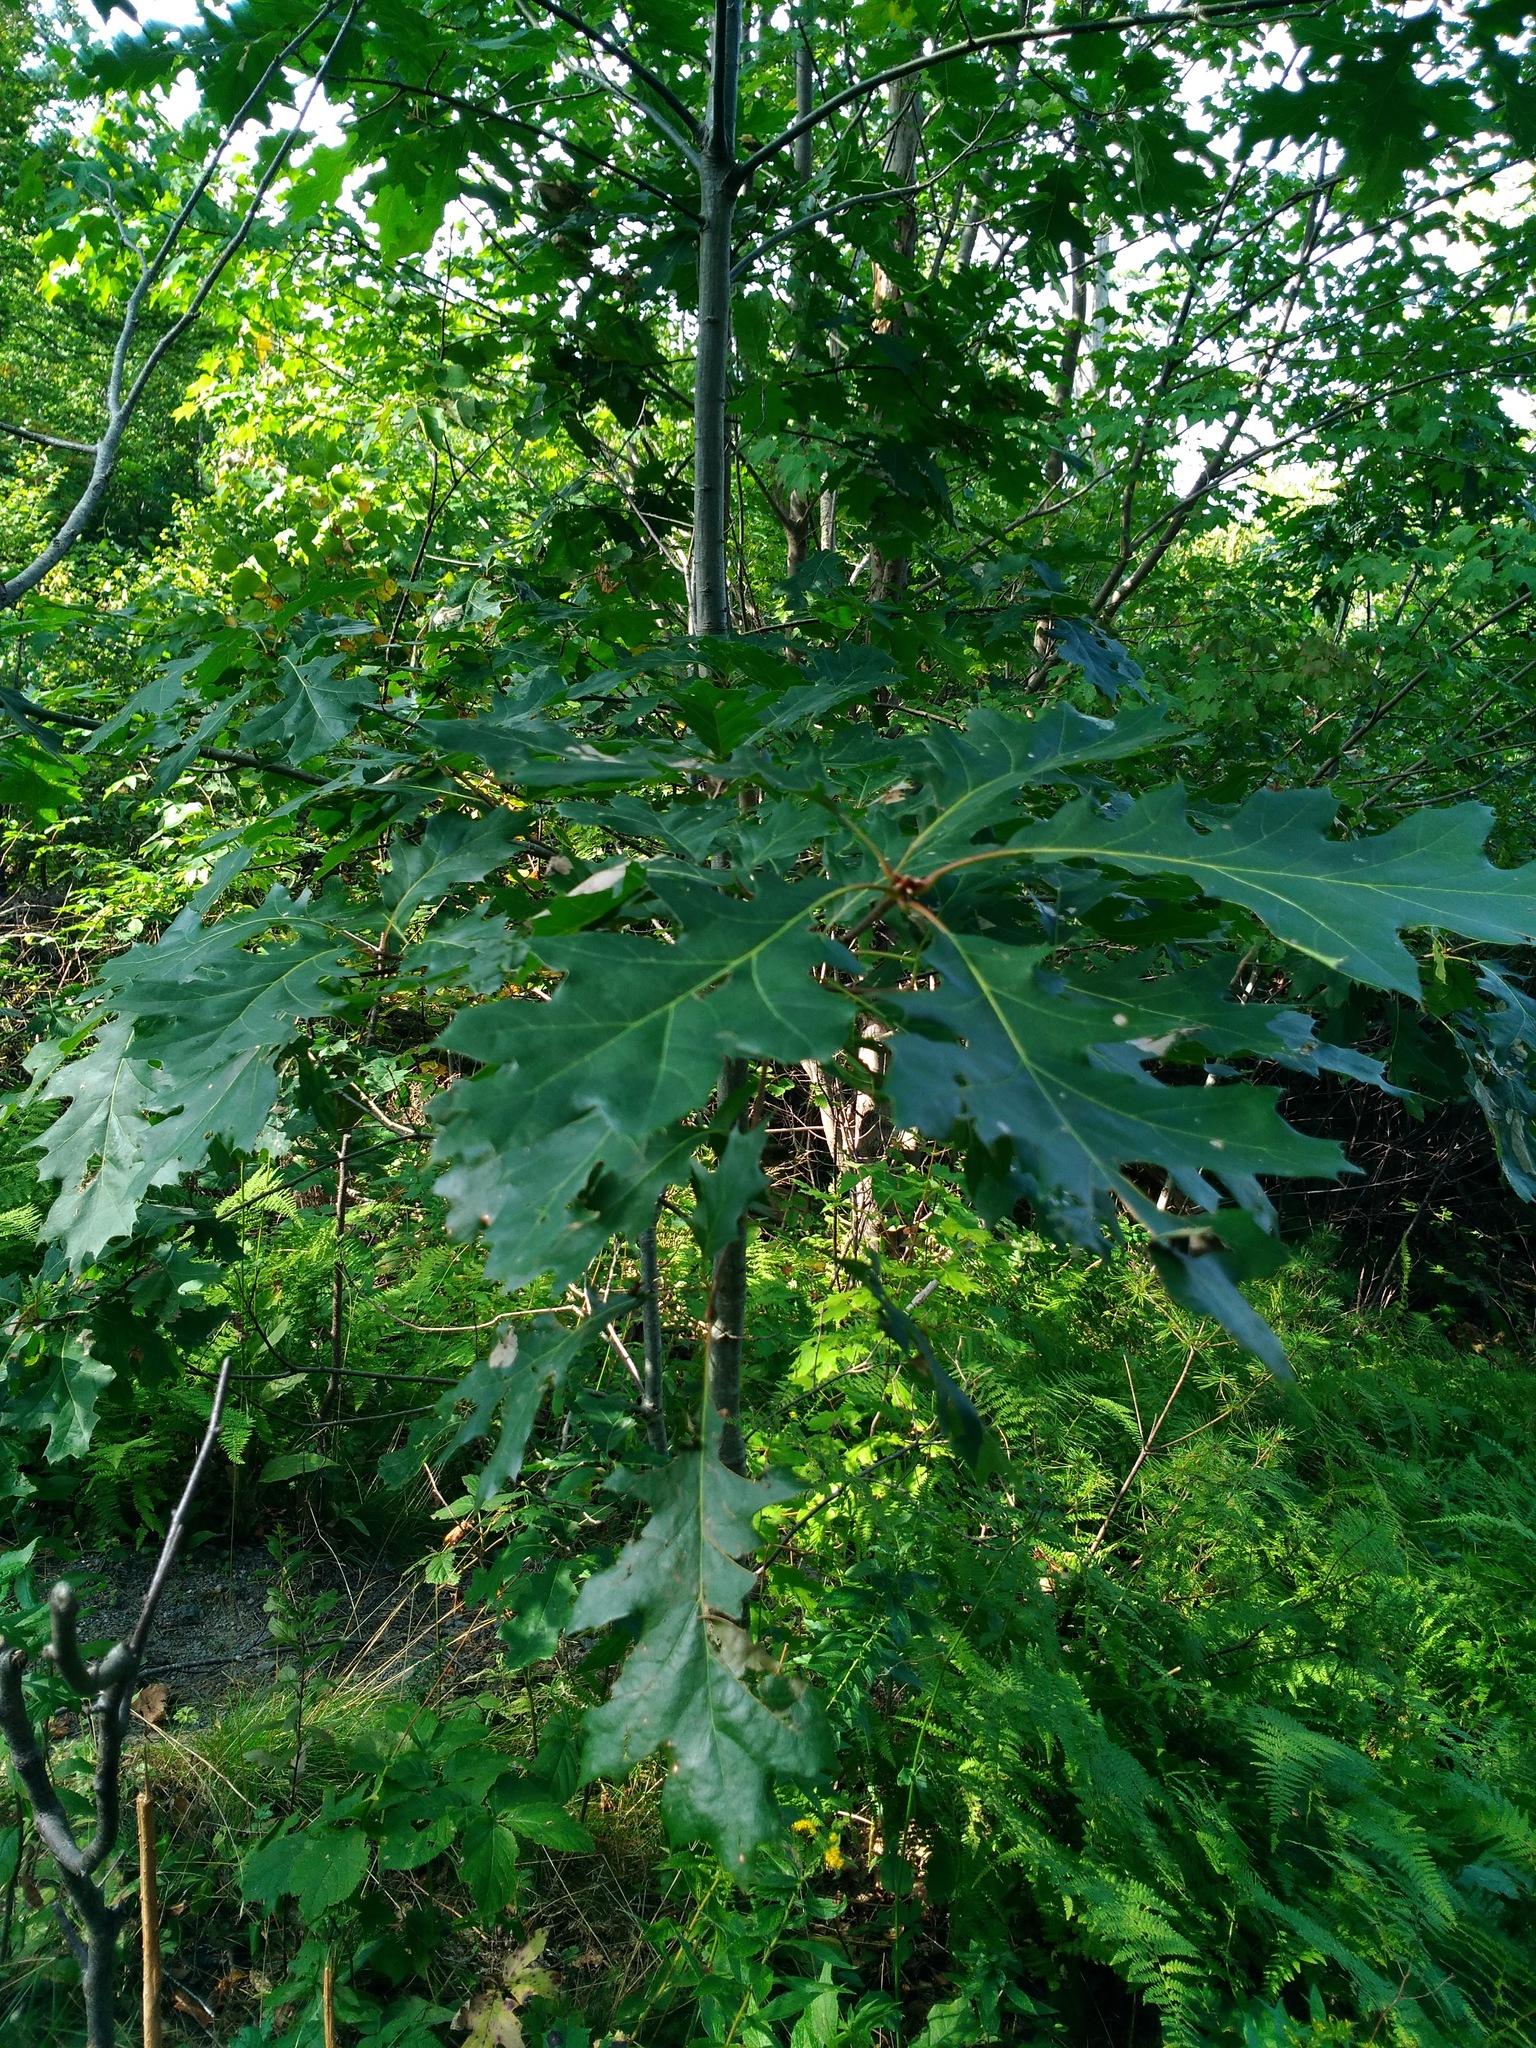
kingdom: Plantae
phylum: Tracheophyta
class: Magnoliopsida
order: Fagales
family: Fagaceae
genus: Quercus
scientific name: Quercus rubra
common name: Red oak
